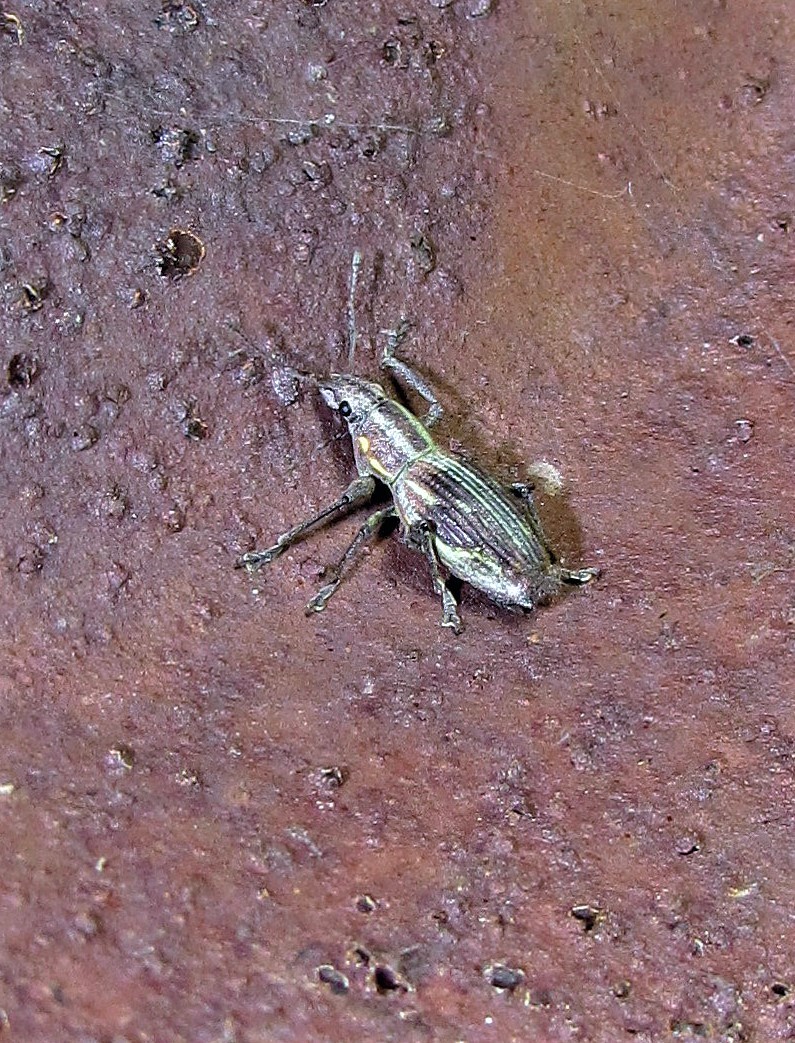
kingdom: Animalia
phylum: Arthropoda
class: Insecta
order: Coleoptera
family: Curculionidae
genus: Naupactus
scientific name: Naupactus xanthographus
